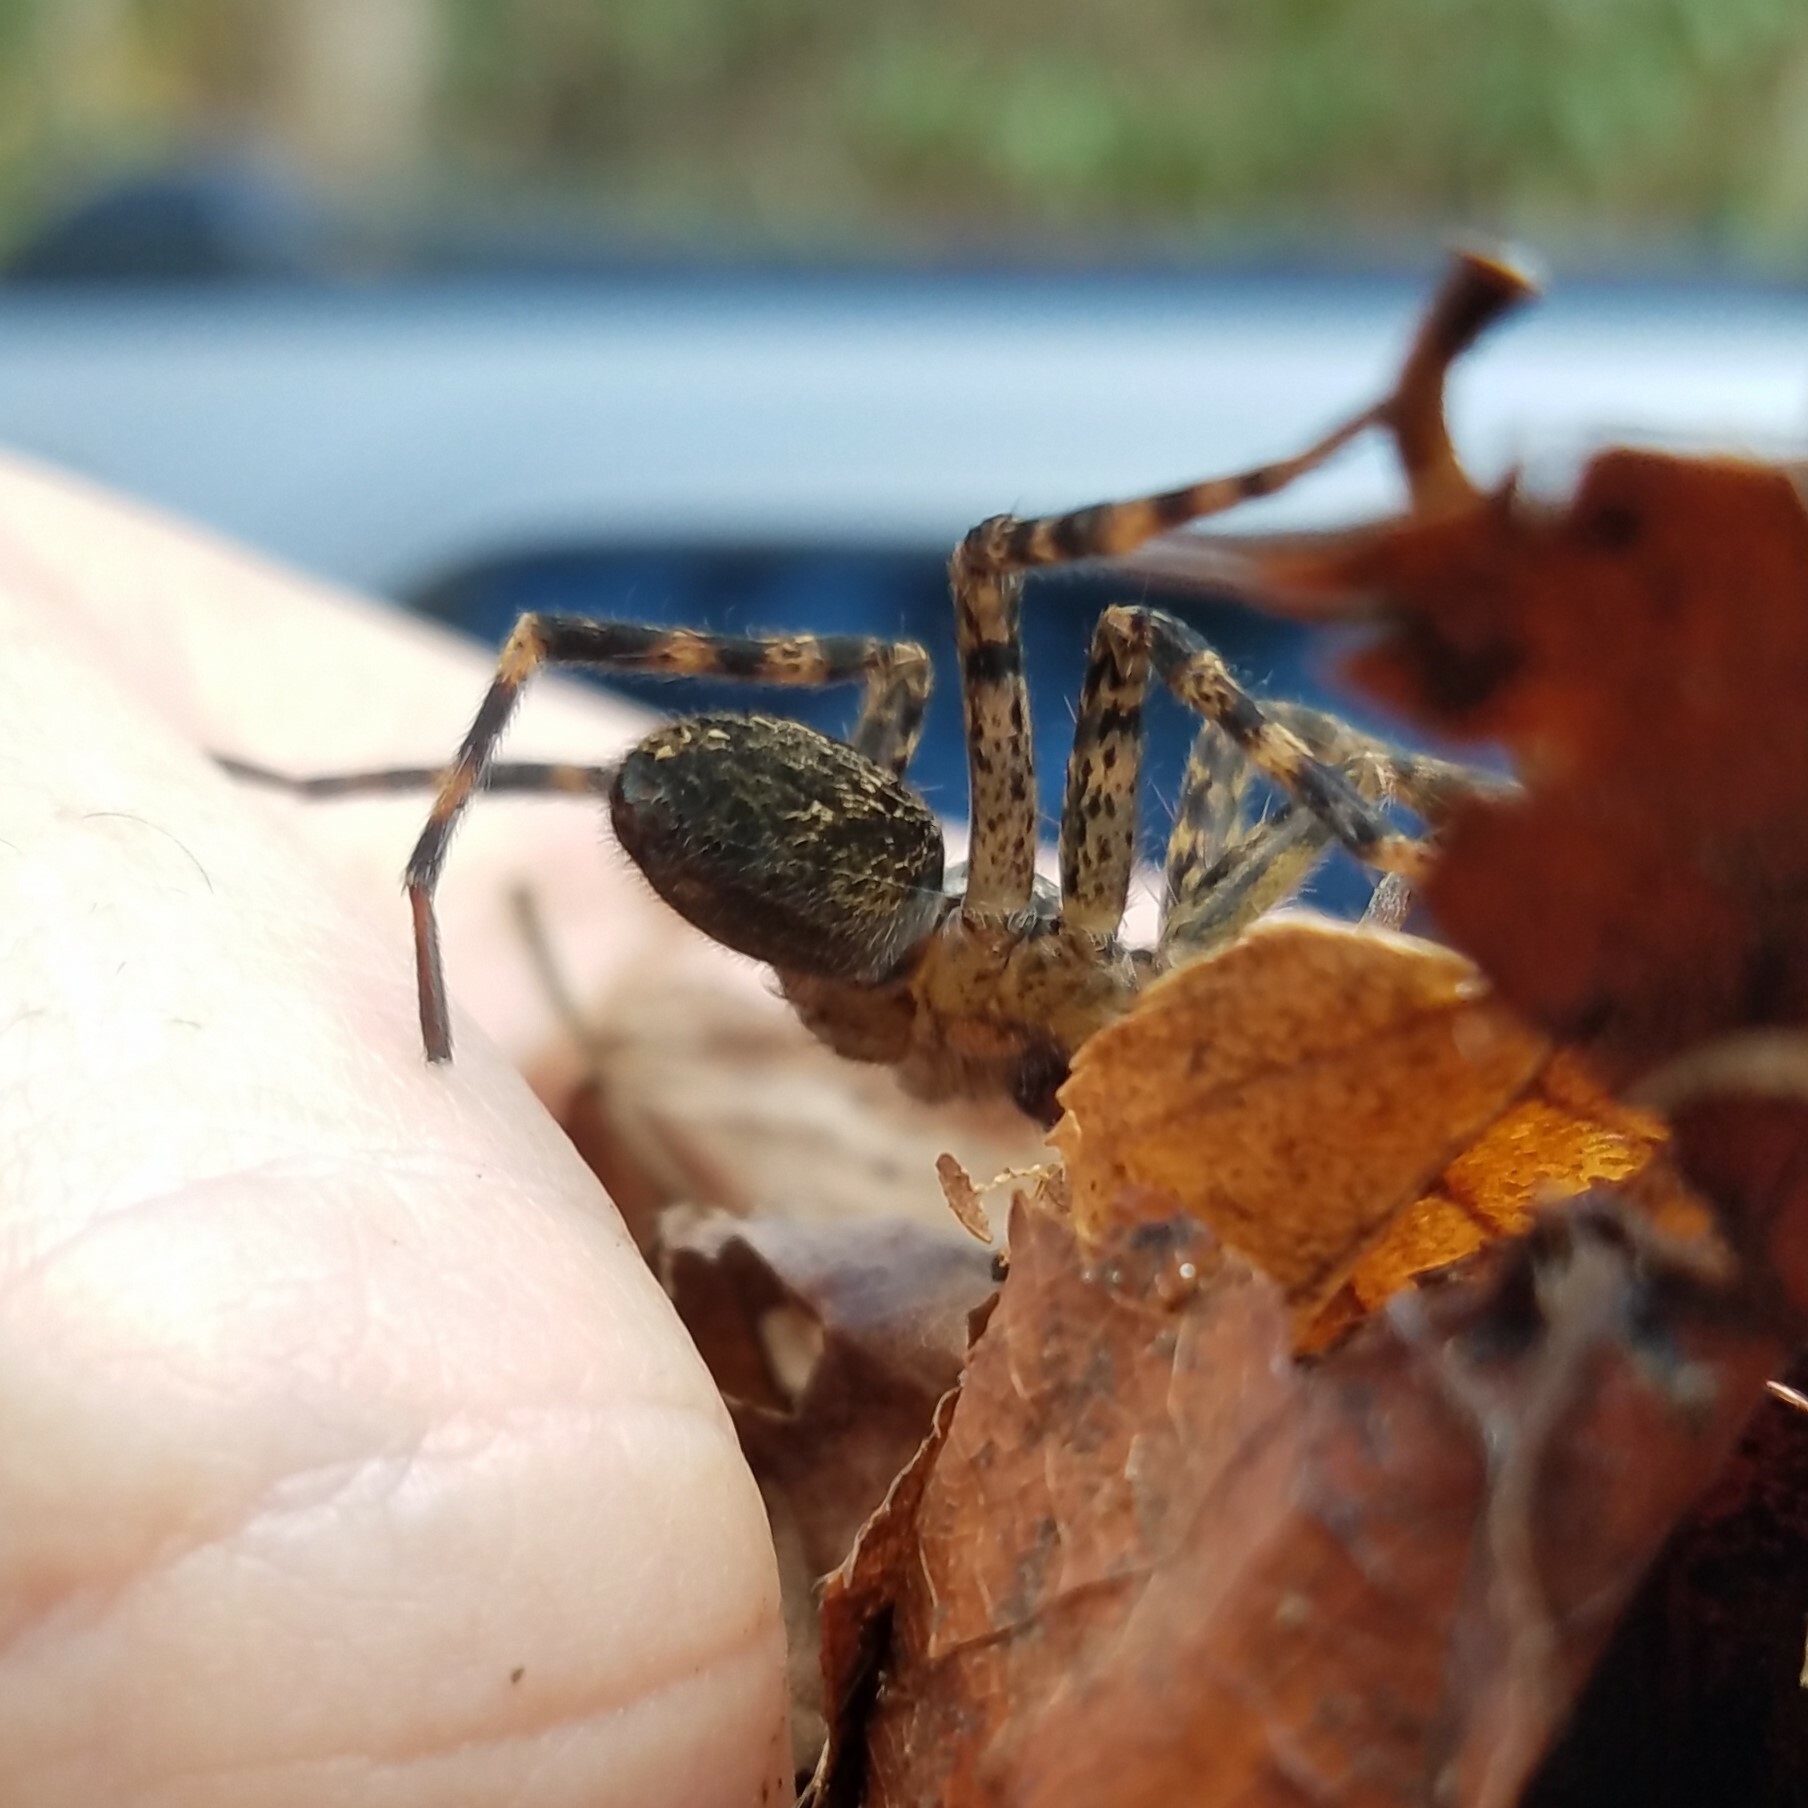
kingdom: Animalia
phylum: Arthropoda
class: Arachnida
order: Araneae
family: Pisauridae
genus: Dolomedes
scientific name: Dolomedes tenebrosus
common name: Dark fishing spider
